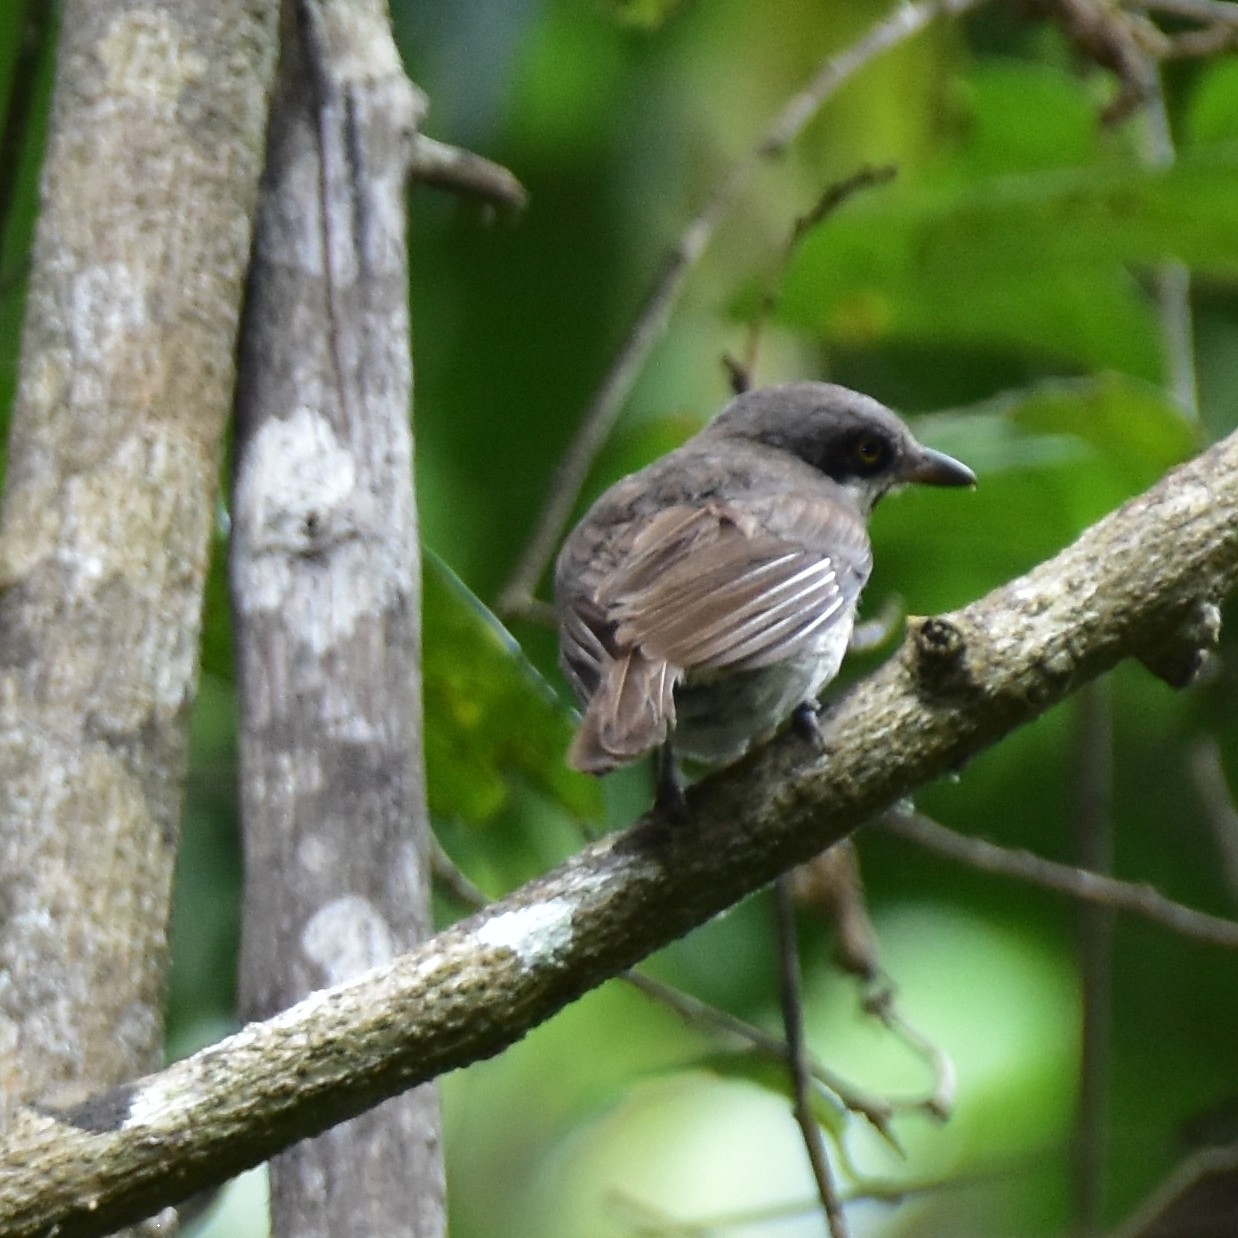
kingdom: Animalia
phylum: Chordata
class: Aves
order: Passeriformes
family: Tephrodornithidae
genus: Tephrodornis
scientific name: Tephrodornis sylvicola
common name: Malabar woodshrike
